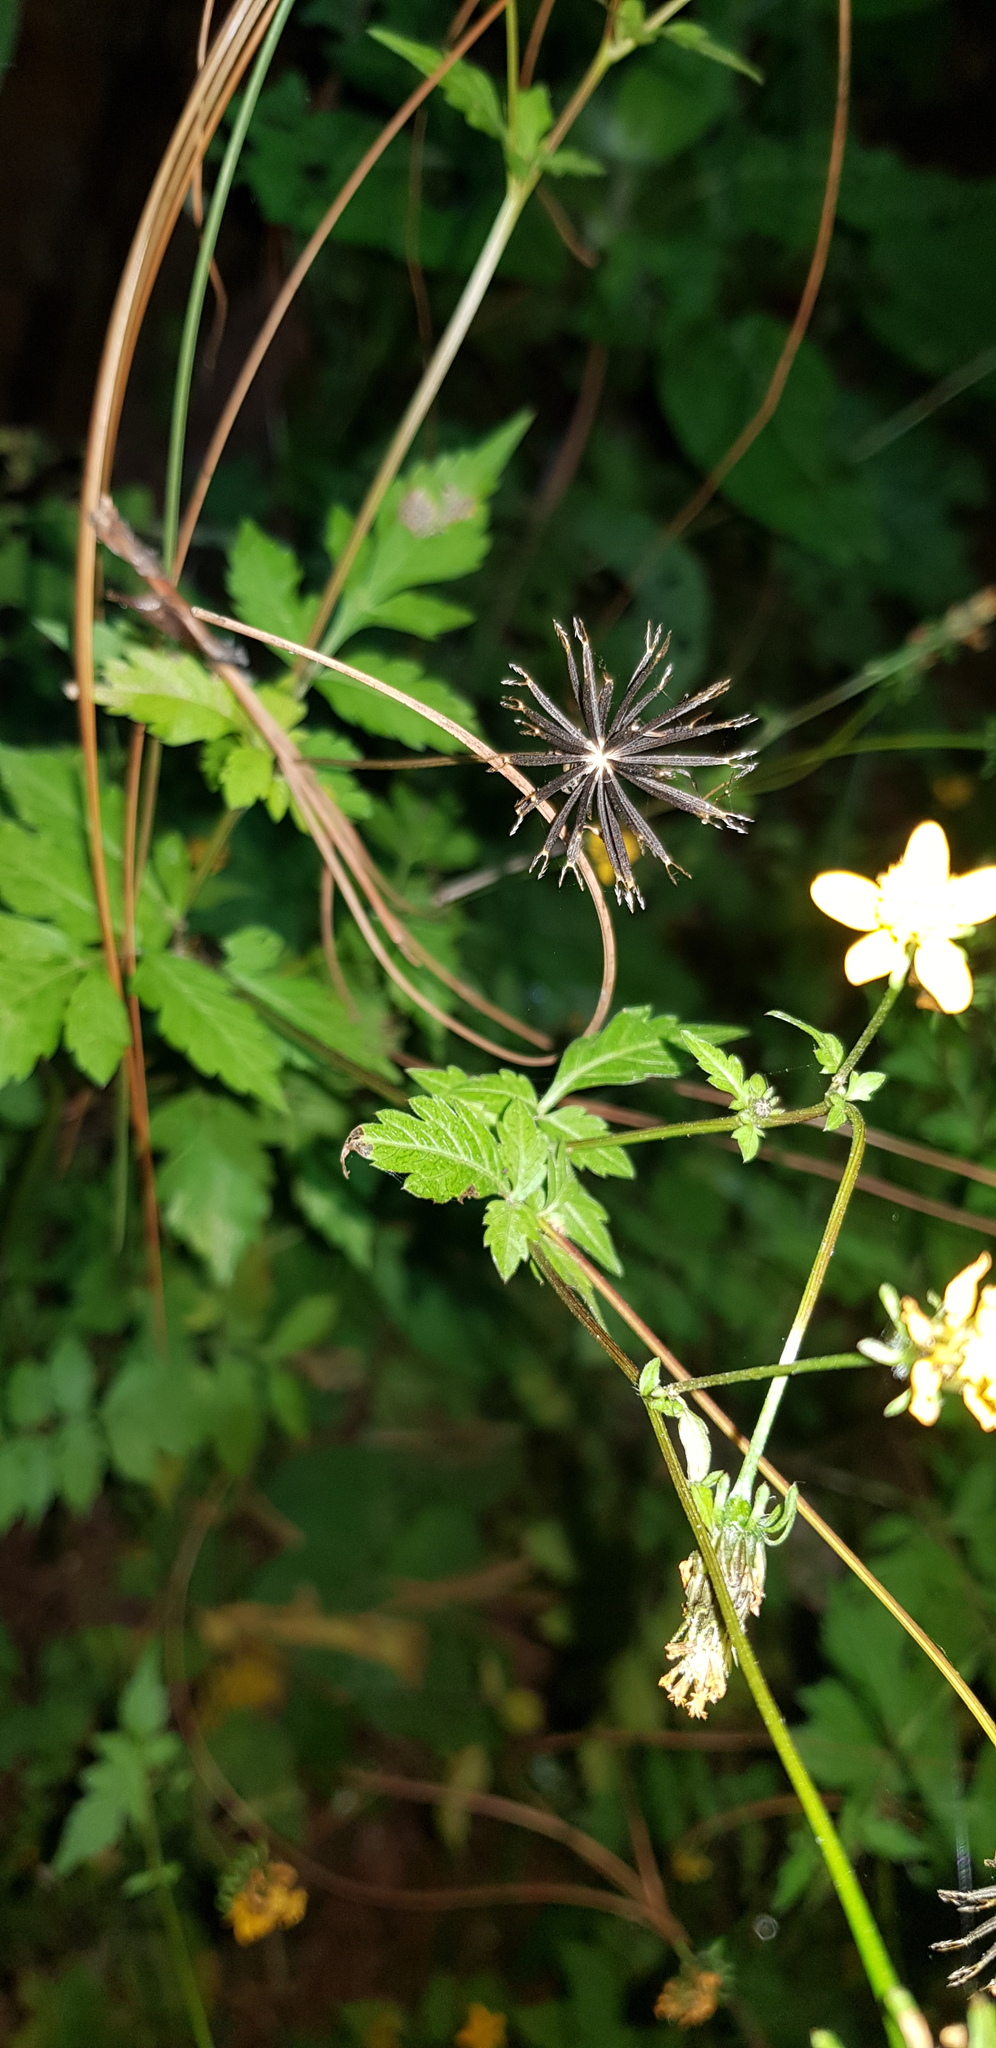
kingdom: Plantae
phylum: Tracheophyta
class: Magnoliopsida
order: Asterales
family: Asteraceae
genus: Bidens
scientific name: Bidens bigelovii
